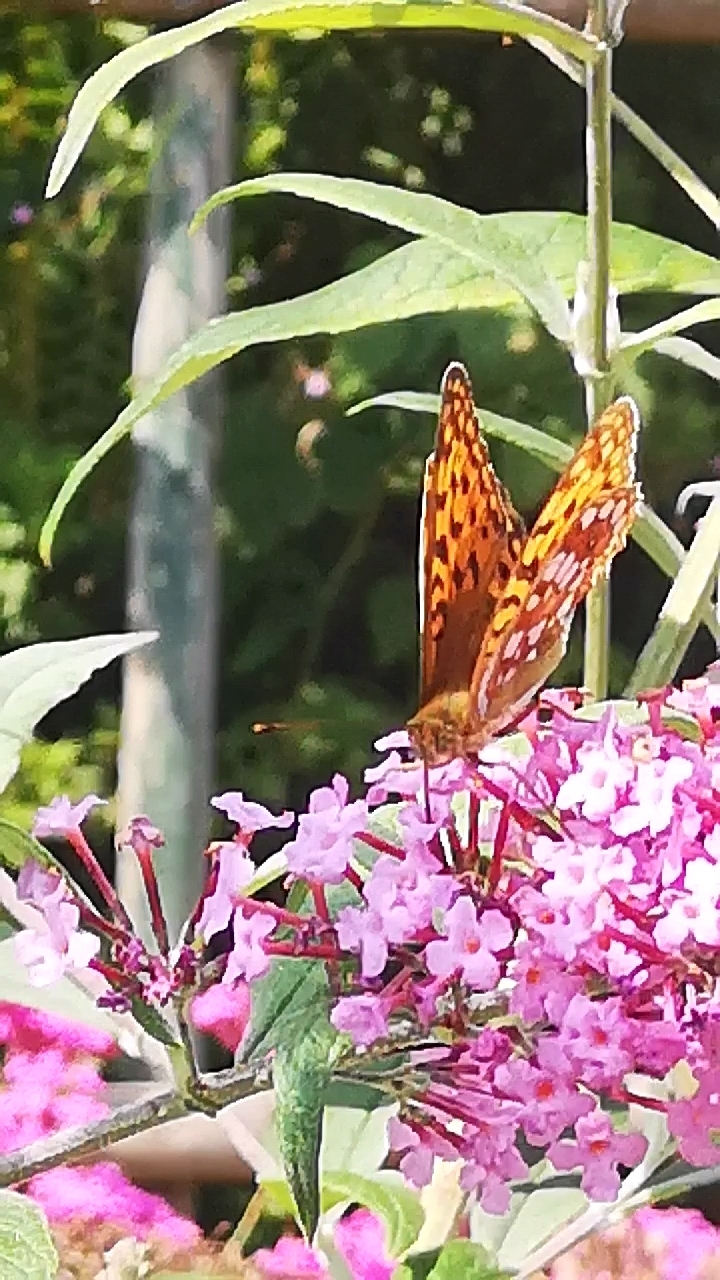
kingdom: Animalia
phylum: Arthropoda
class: Insecta
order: Lepidoptera
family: Nymphalidae
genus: Fabriciana
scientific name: Fabriciana adippe
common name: High brown fritillary
